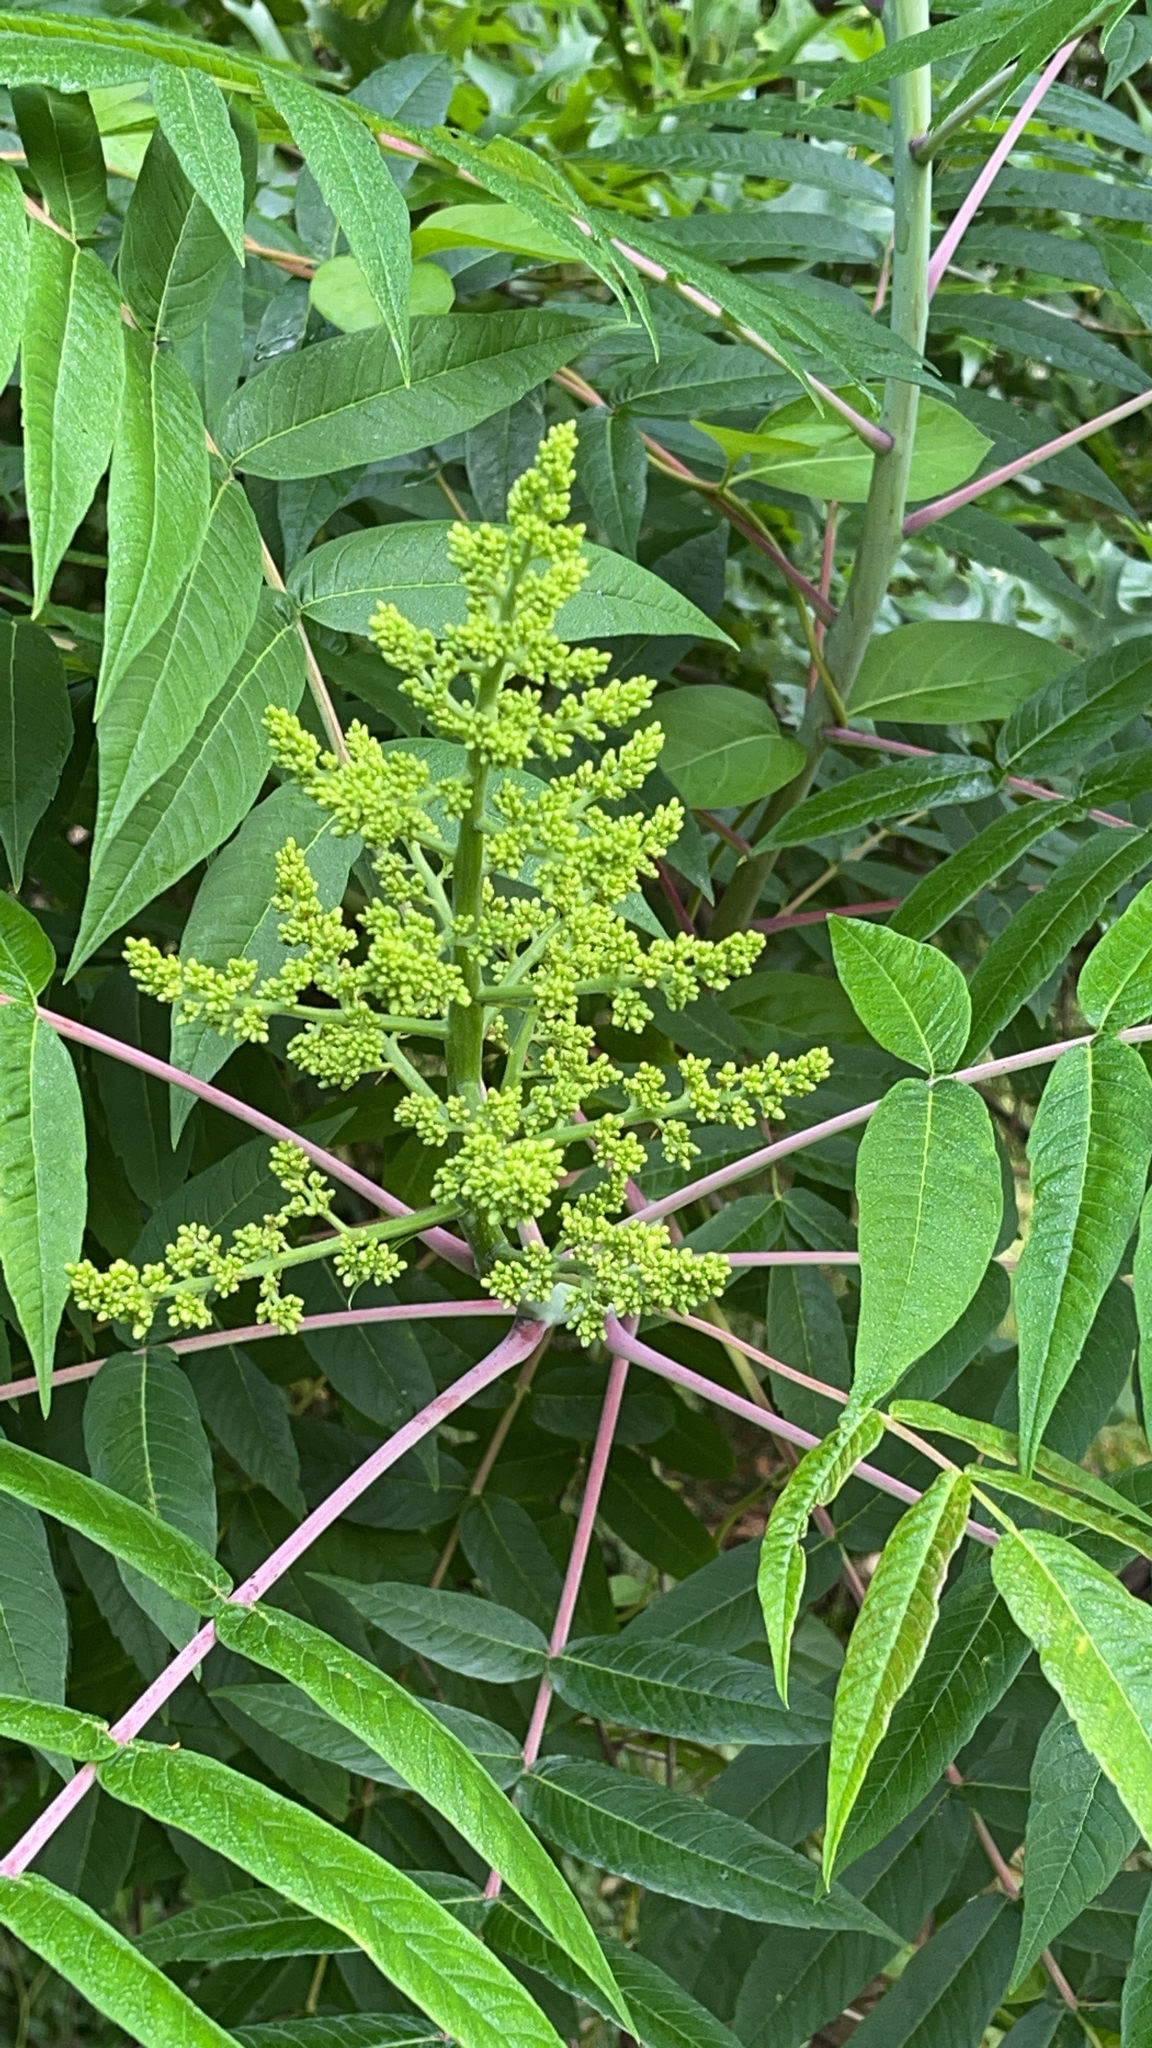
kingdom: Plantae
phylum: Tracheophyta
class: Magnoliopsida
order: Sapindales
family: Anacardiaceae
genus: Rhus
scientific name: Rhus glabra
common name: Scarlet sumac
